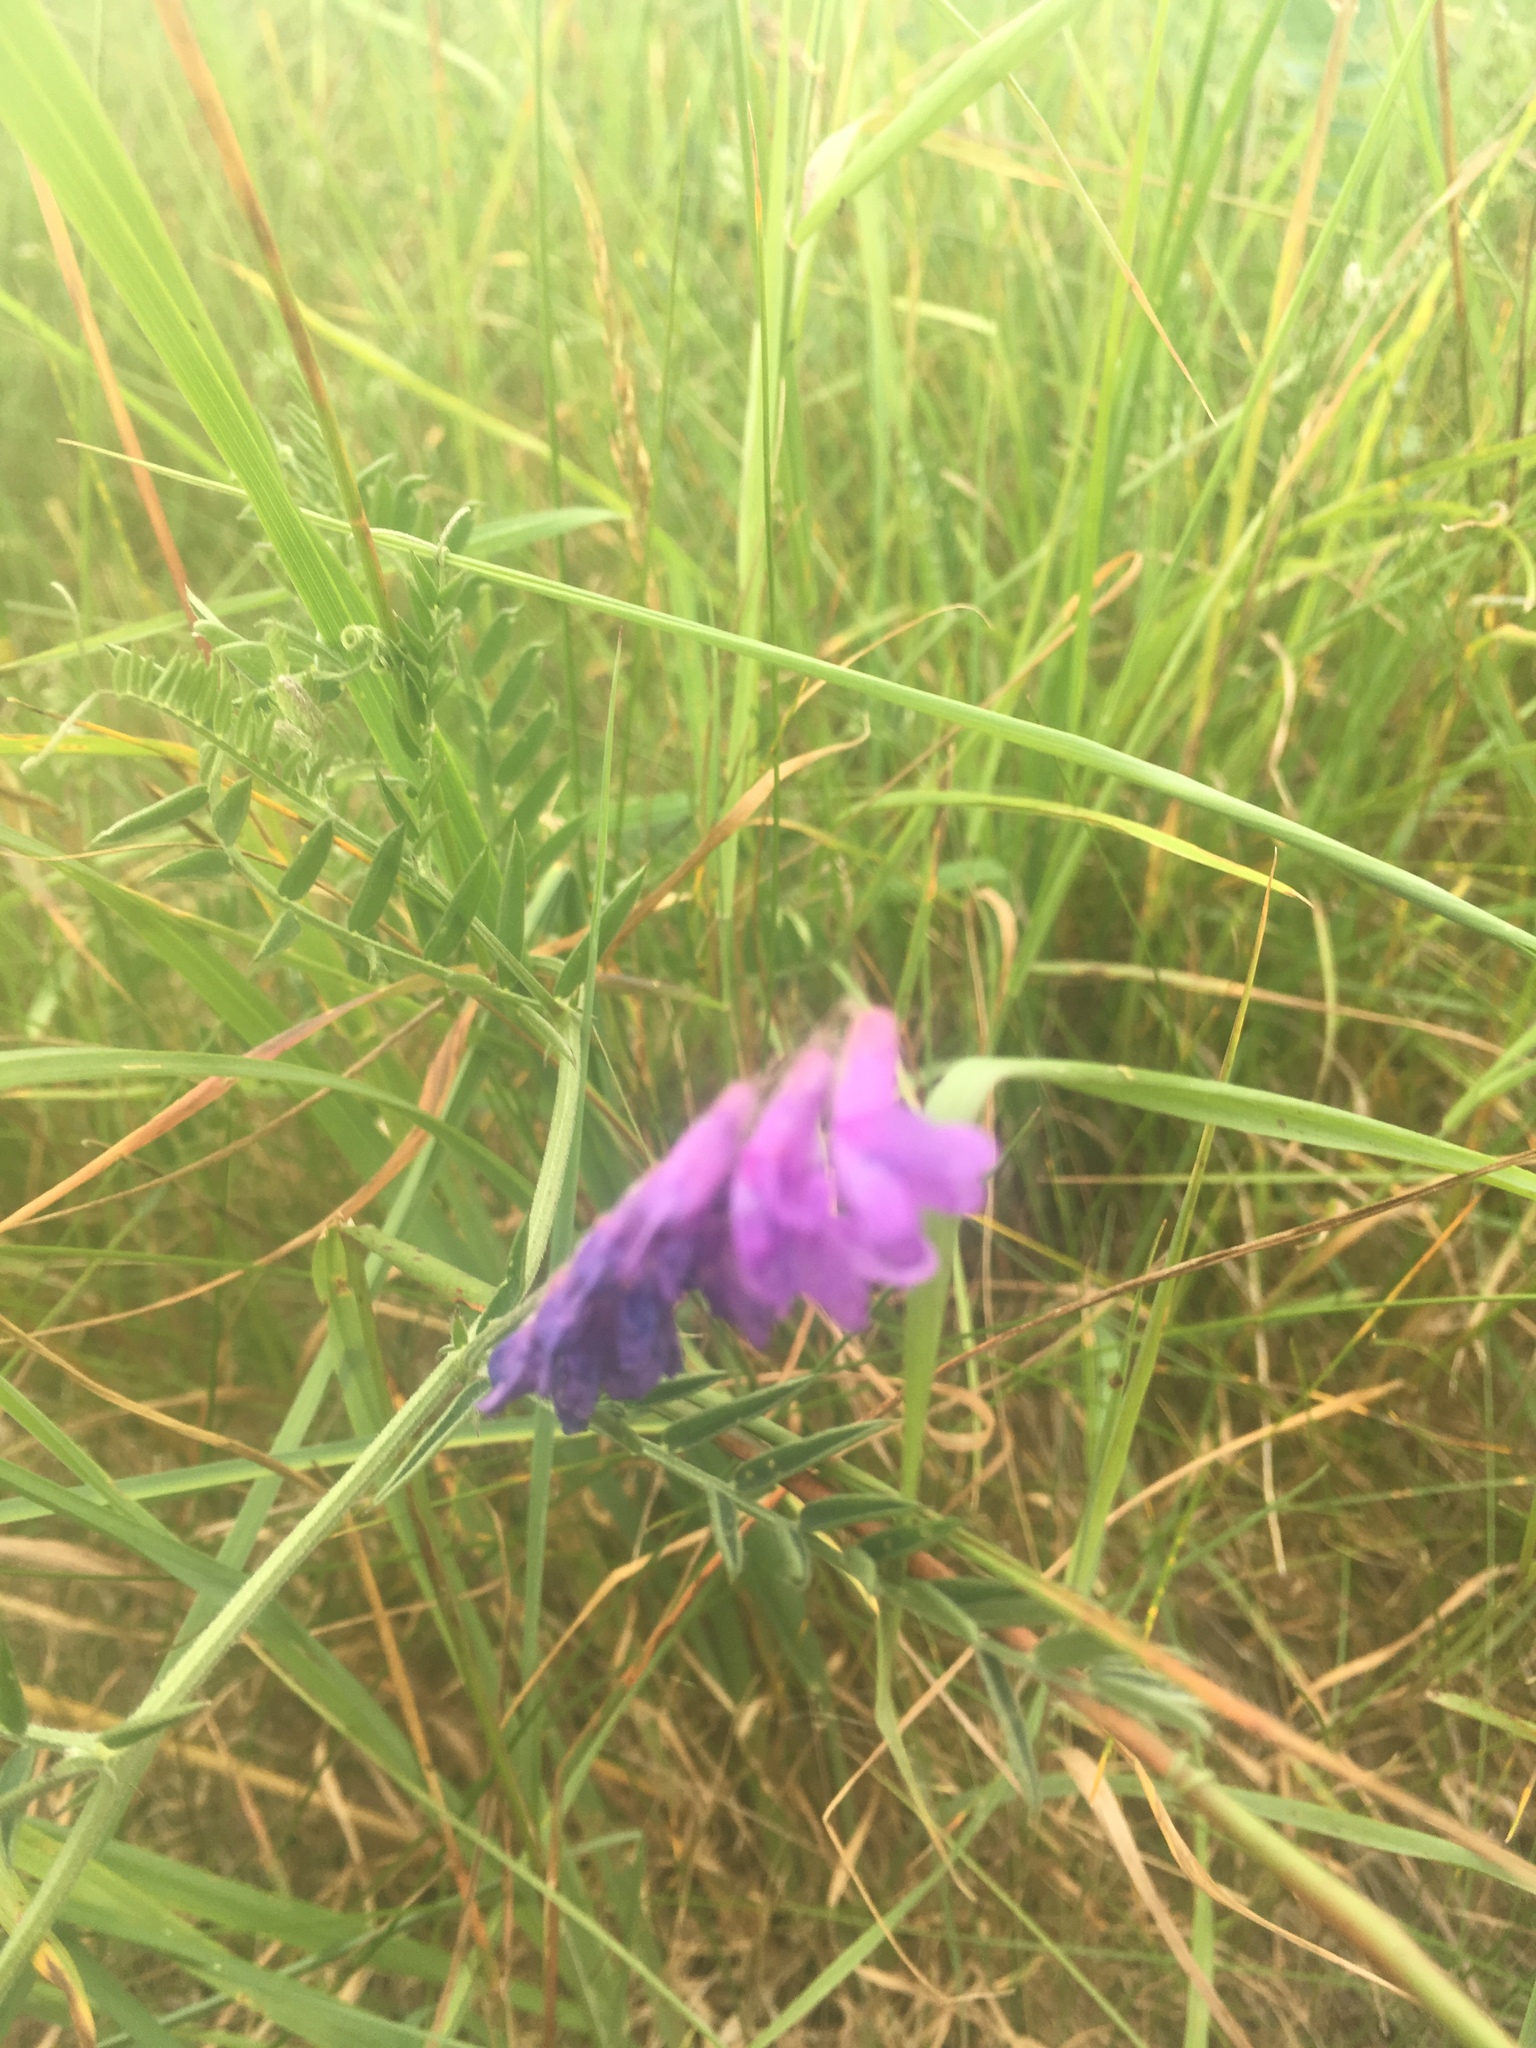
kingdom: Plantae
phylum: Tracheophyta
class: Magnoliopsida
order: Fabales
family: Fabaceae
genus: Vicia
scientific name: Vicia cracca
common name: Bird vetch
